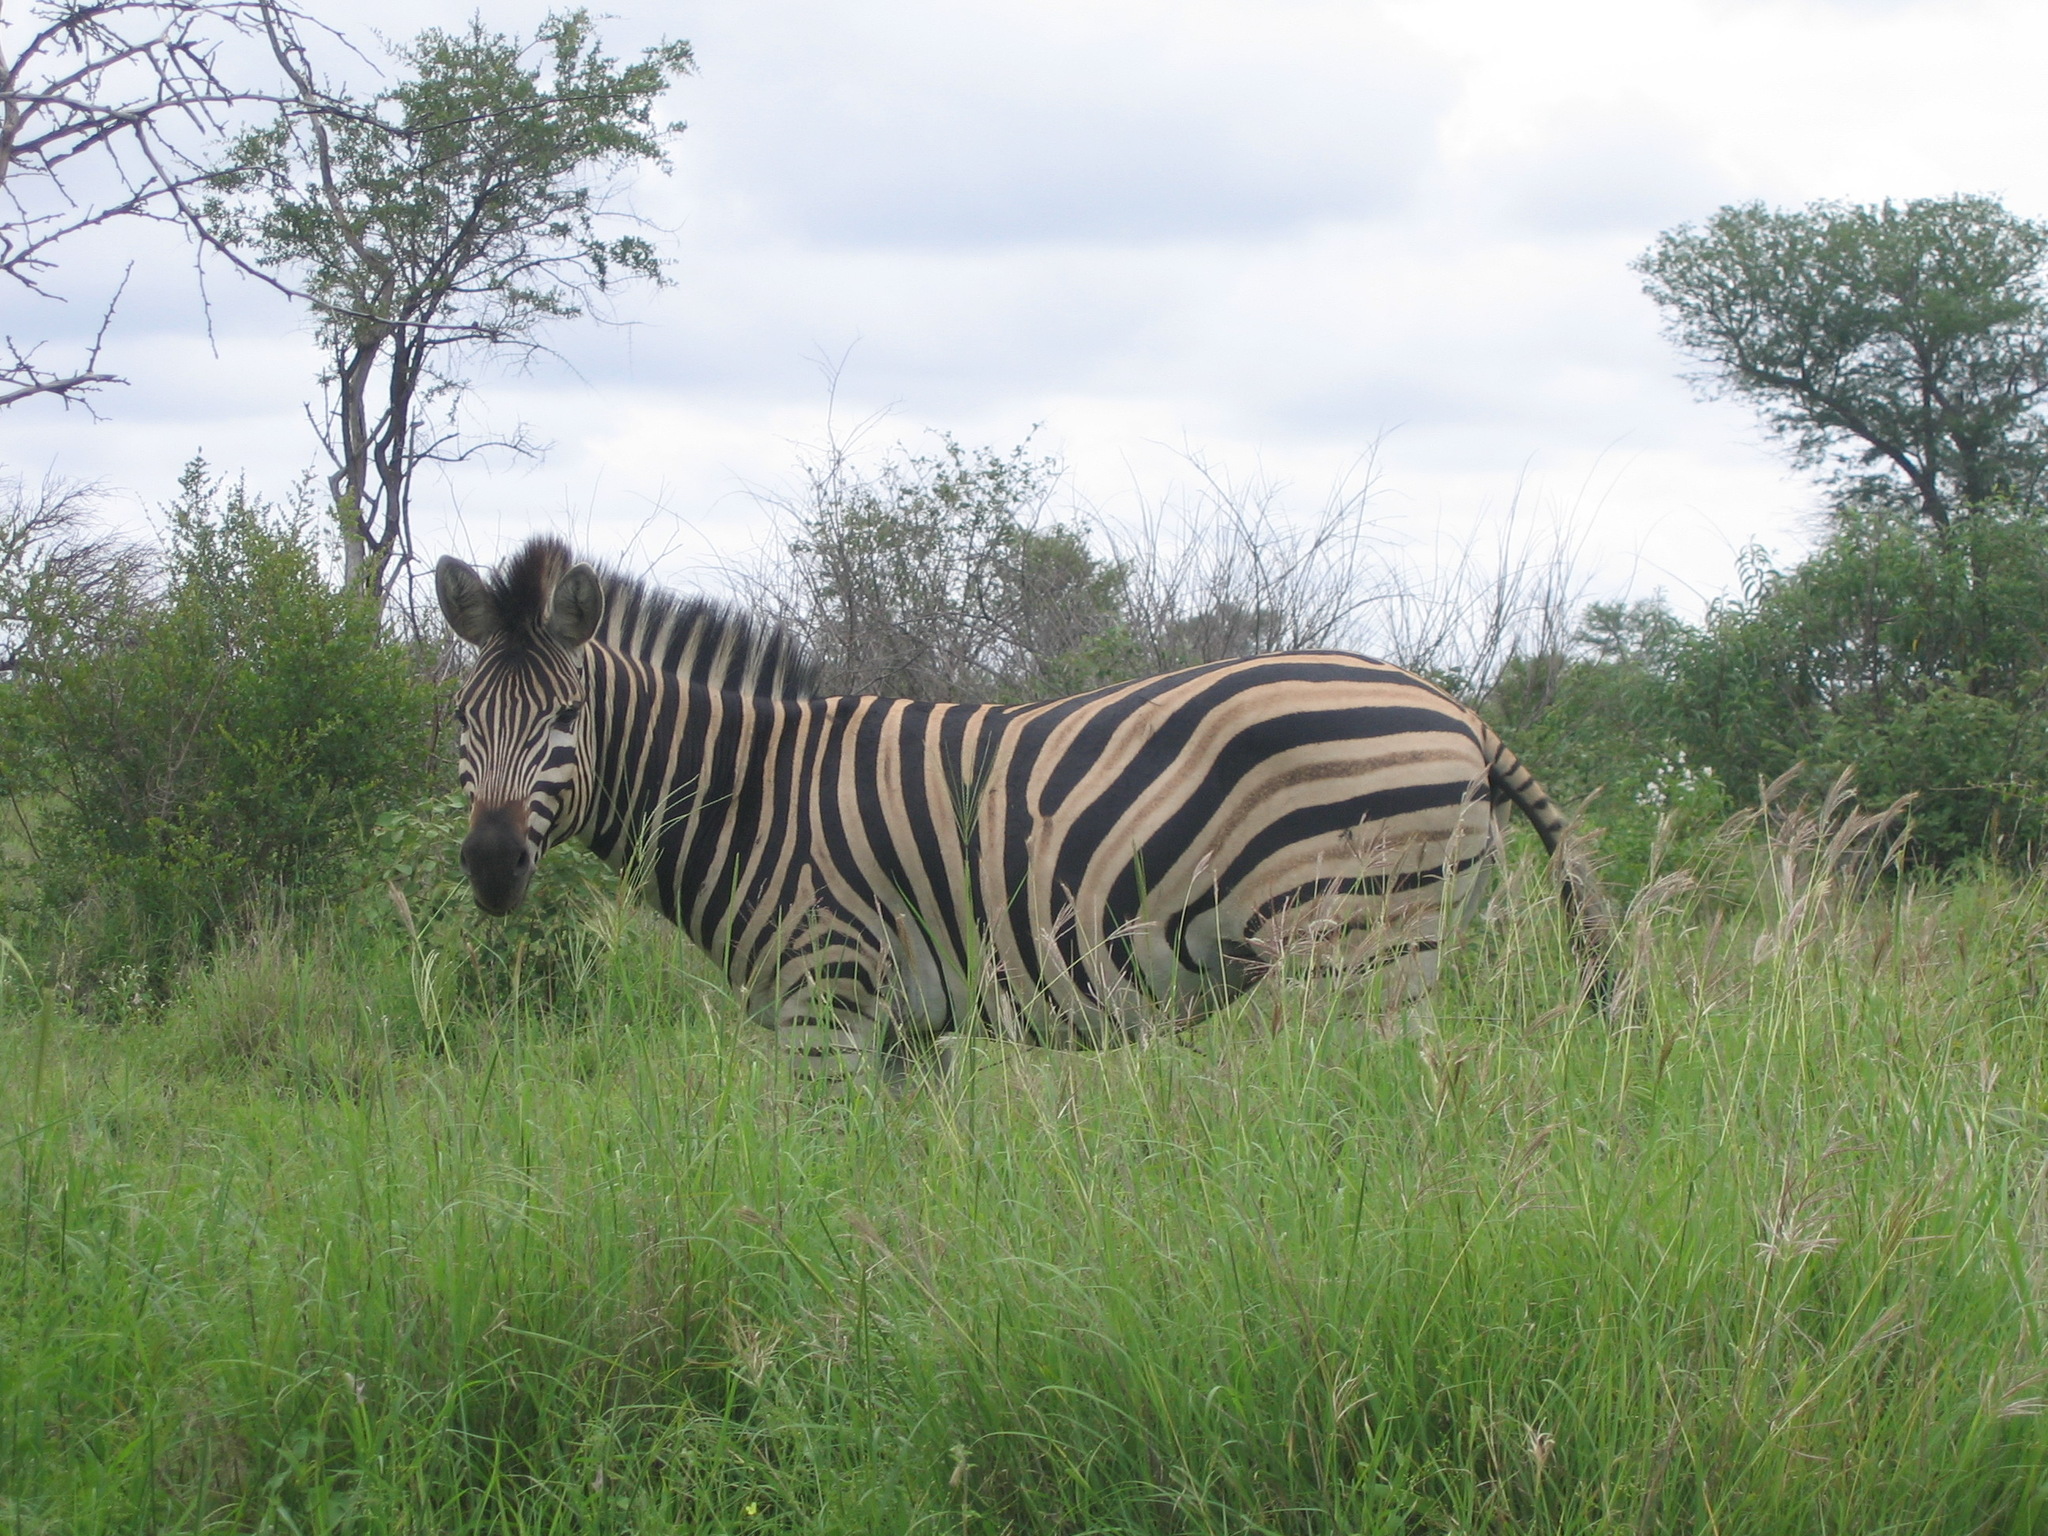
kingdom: Animalia
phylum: Chordata
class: Mammalia
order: Perissodactyla
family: Equidae
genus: Equus
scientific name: Equus quagga
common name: Plains zebra
